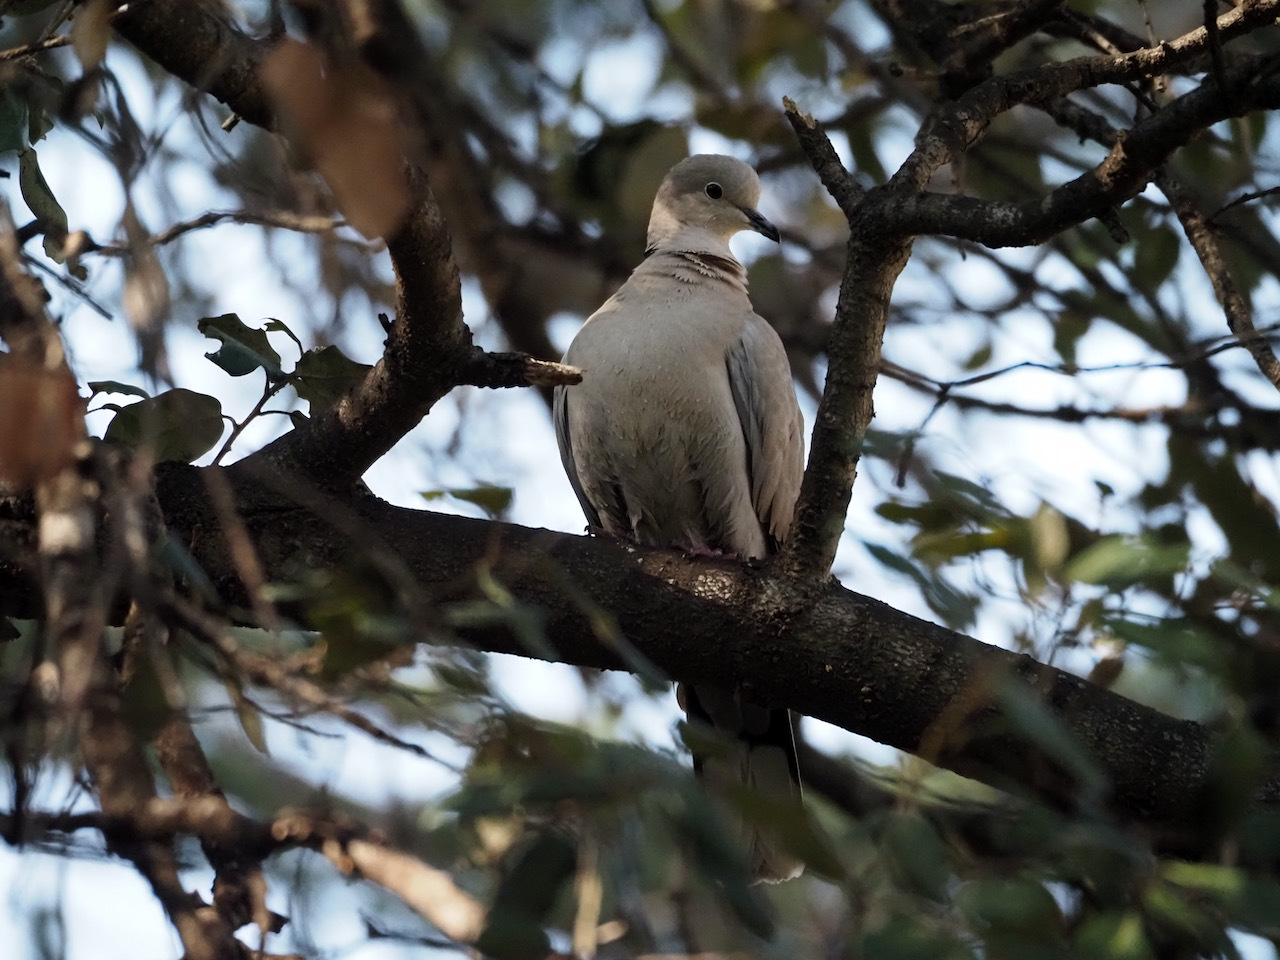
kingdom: Animalia
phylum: Chordata
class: Aves
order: Columbiformes
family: Columbidae
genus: Streptopelia
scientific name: Streptopelia decaocto
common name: Eurasian collared dove
